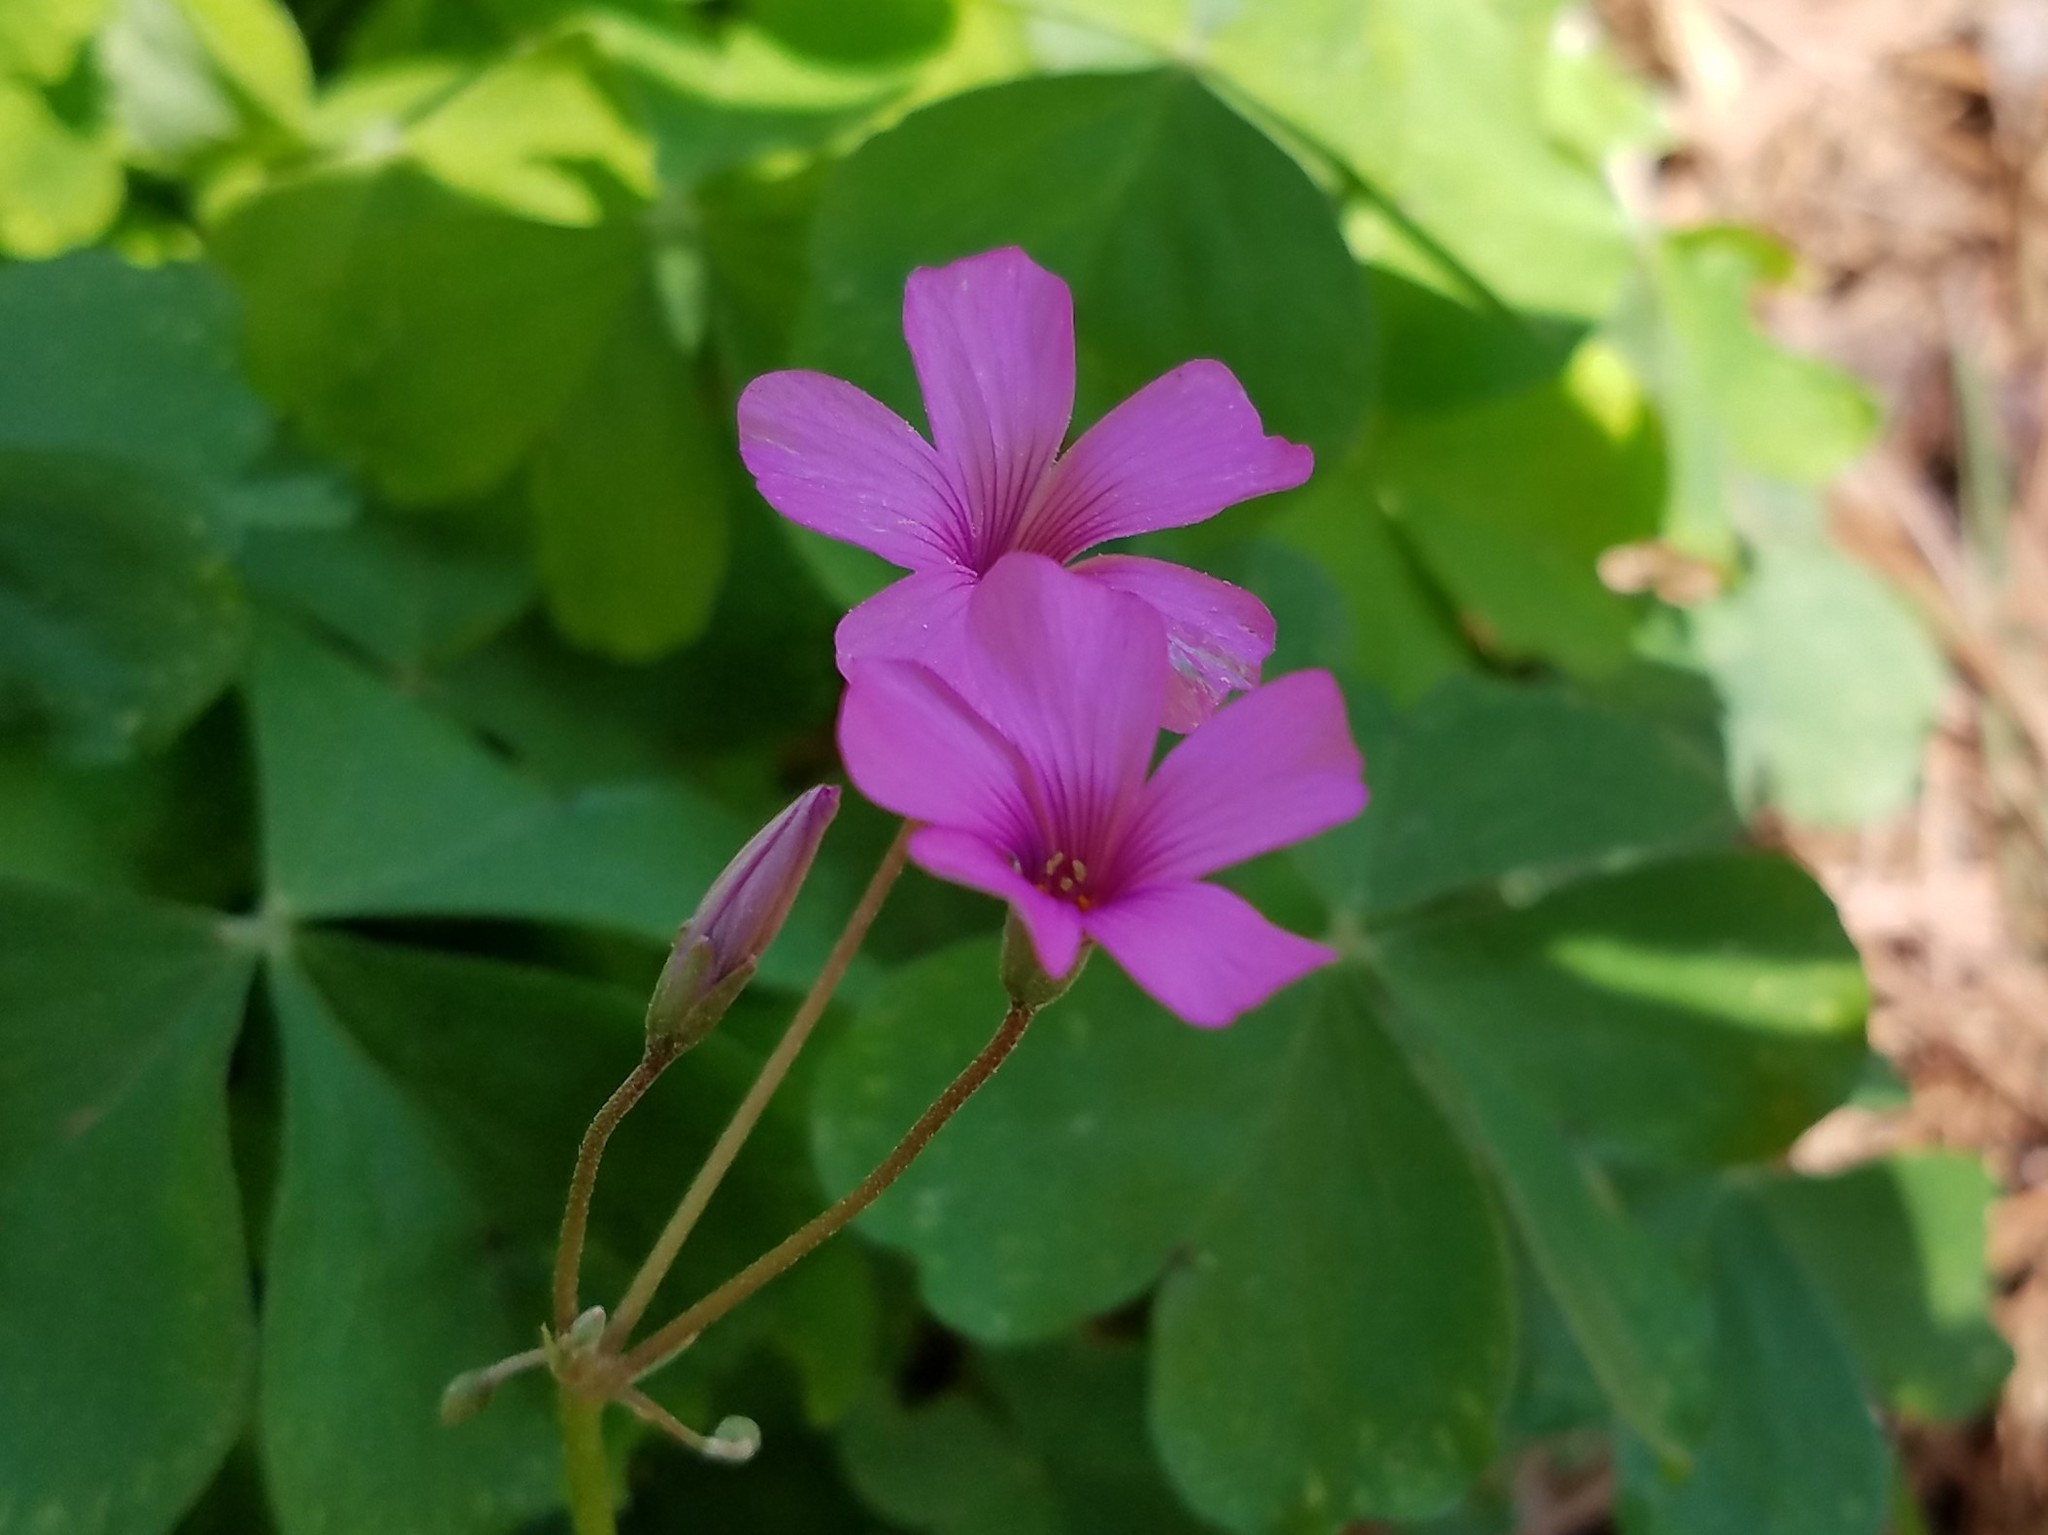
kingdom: Plantae
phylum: Tracheophyta
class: Magnoliopsida
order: Oxalidales
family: Oxalidaceae
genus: Oxalis
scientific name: Oxalis articulata
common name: Pink-sorrel
